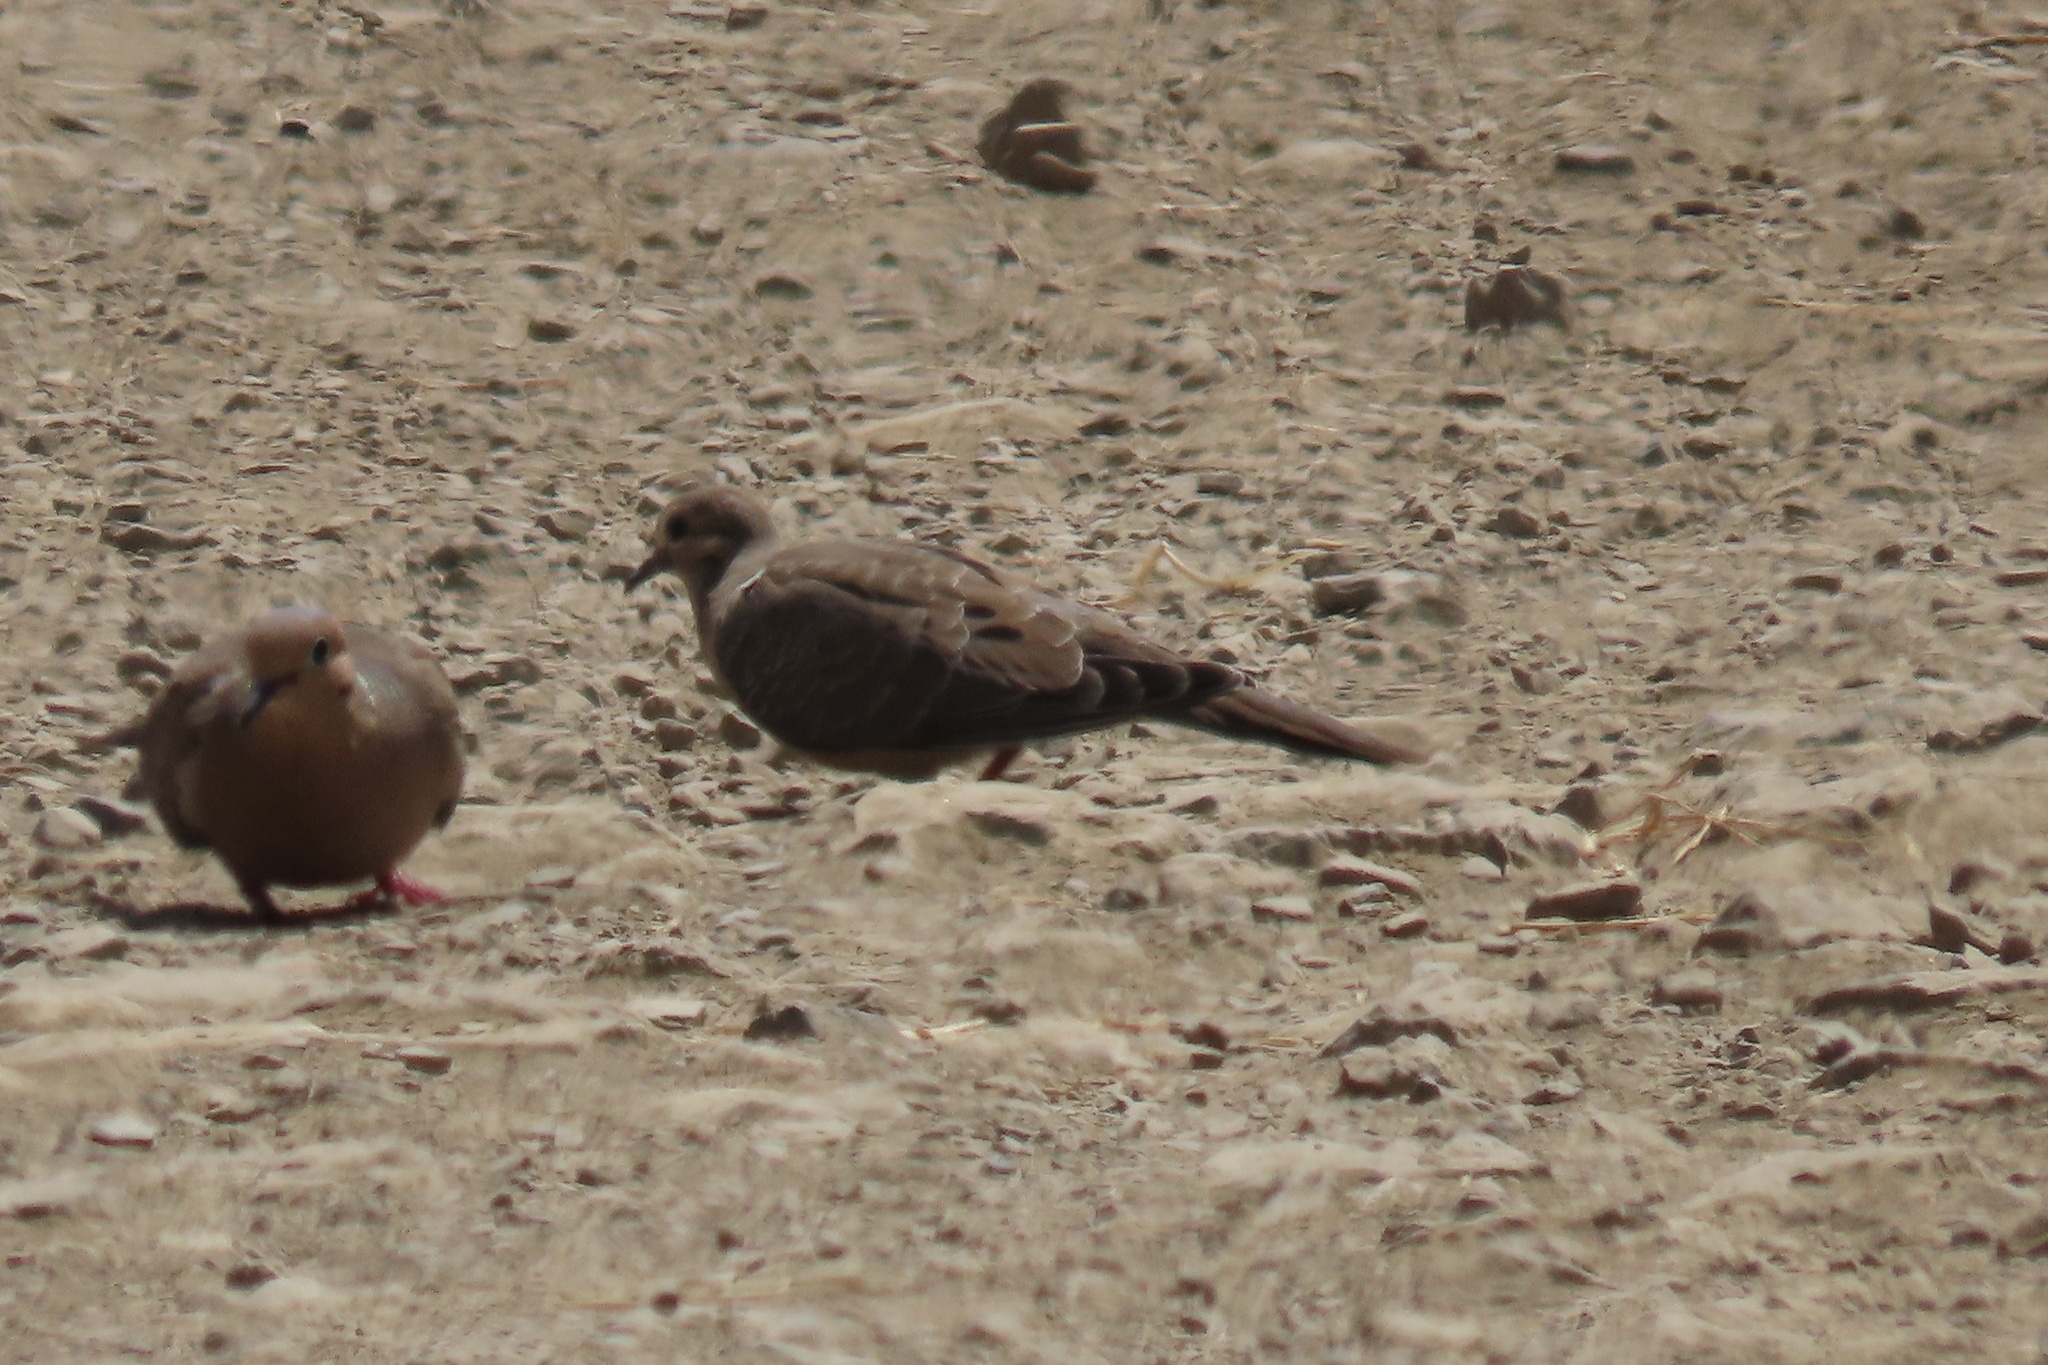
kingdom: Animalia
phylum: Chordata
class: Aves
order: Columbiformes
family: Columbidae
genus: Zenaida
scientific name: Zenaida macroura
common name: Mourning dove
